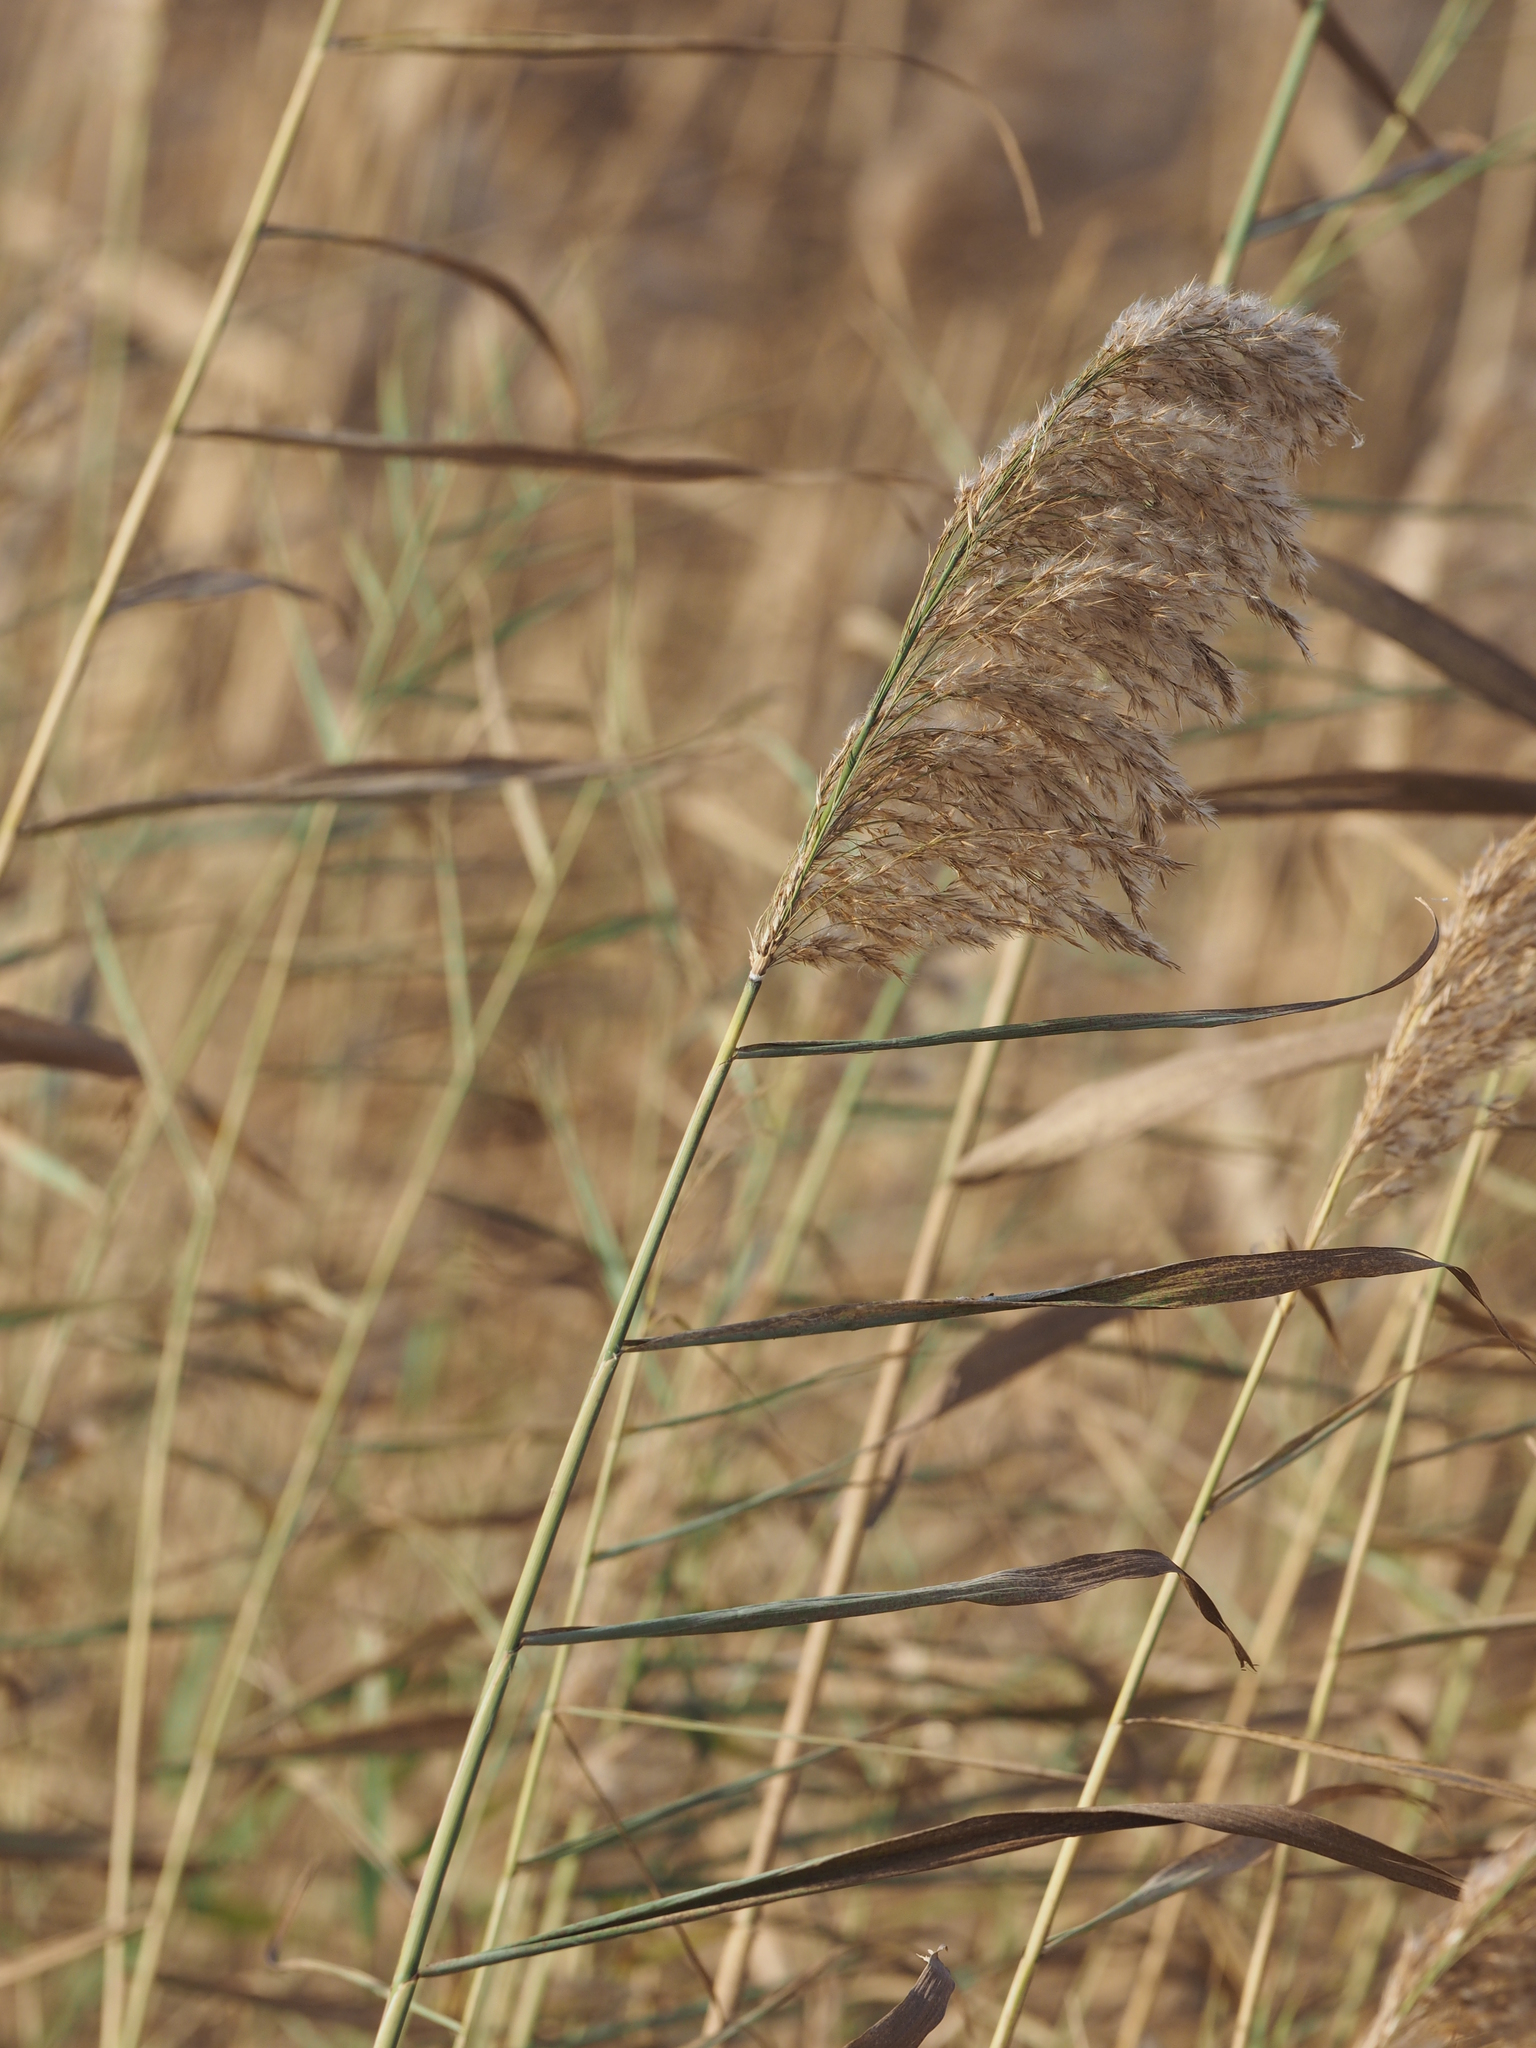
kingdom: Plantae
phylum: Tracheophyta
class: Liliopsida
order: Poales
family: Poaceae
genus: Phragmites
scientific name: Phragmites australis
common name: Common reed
